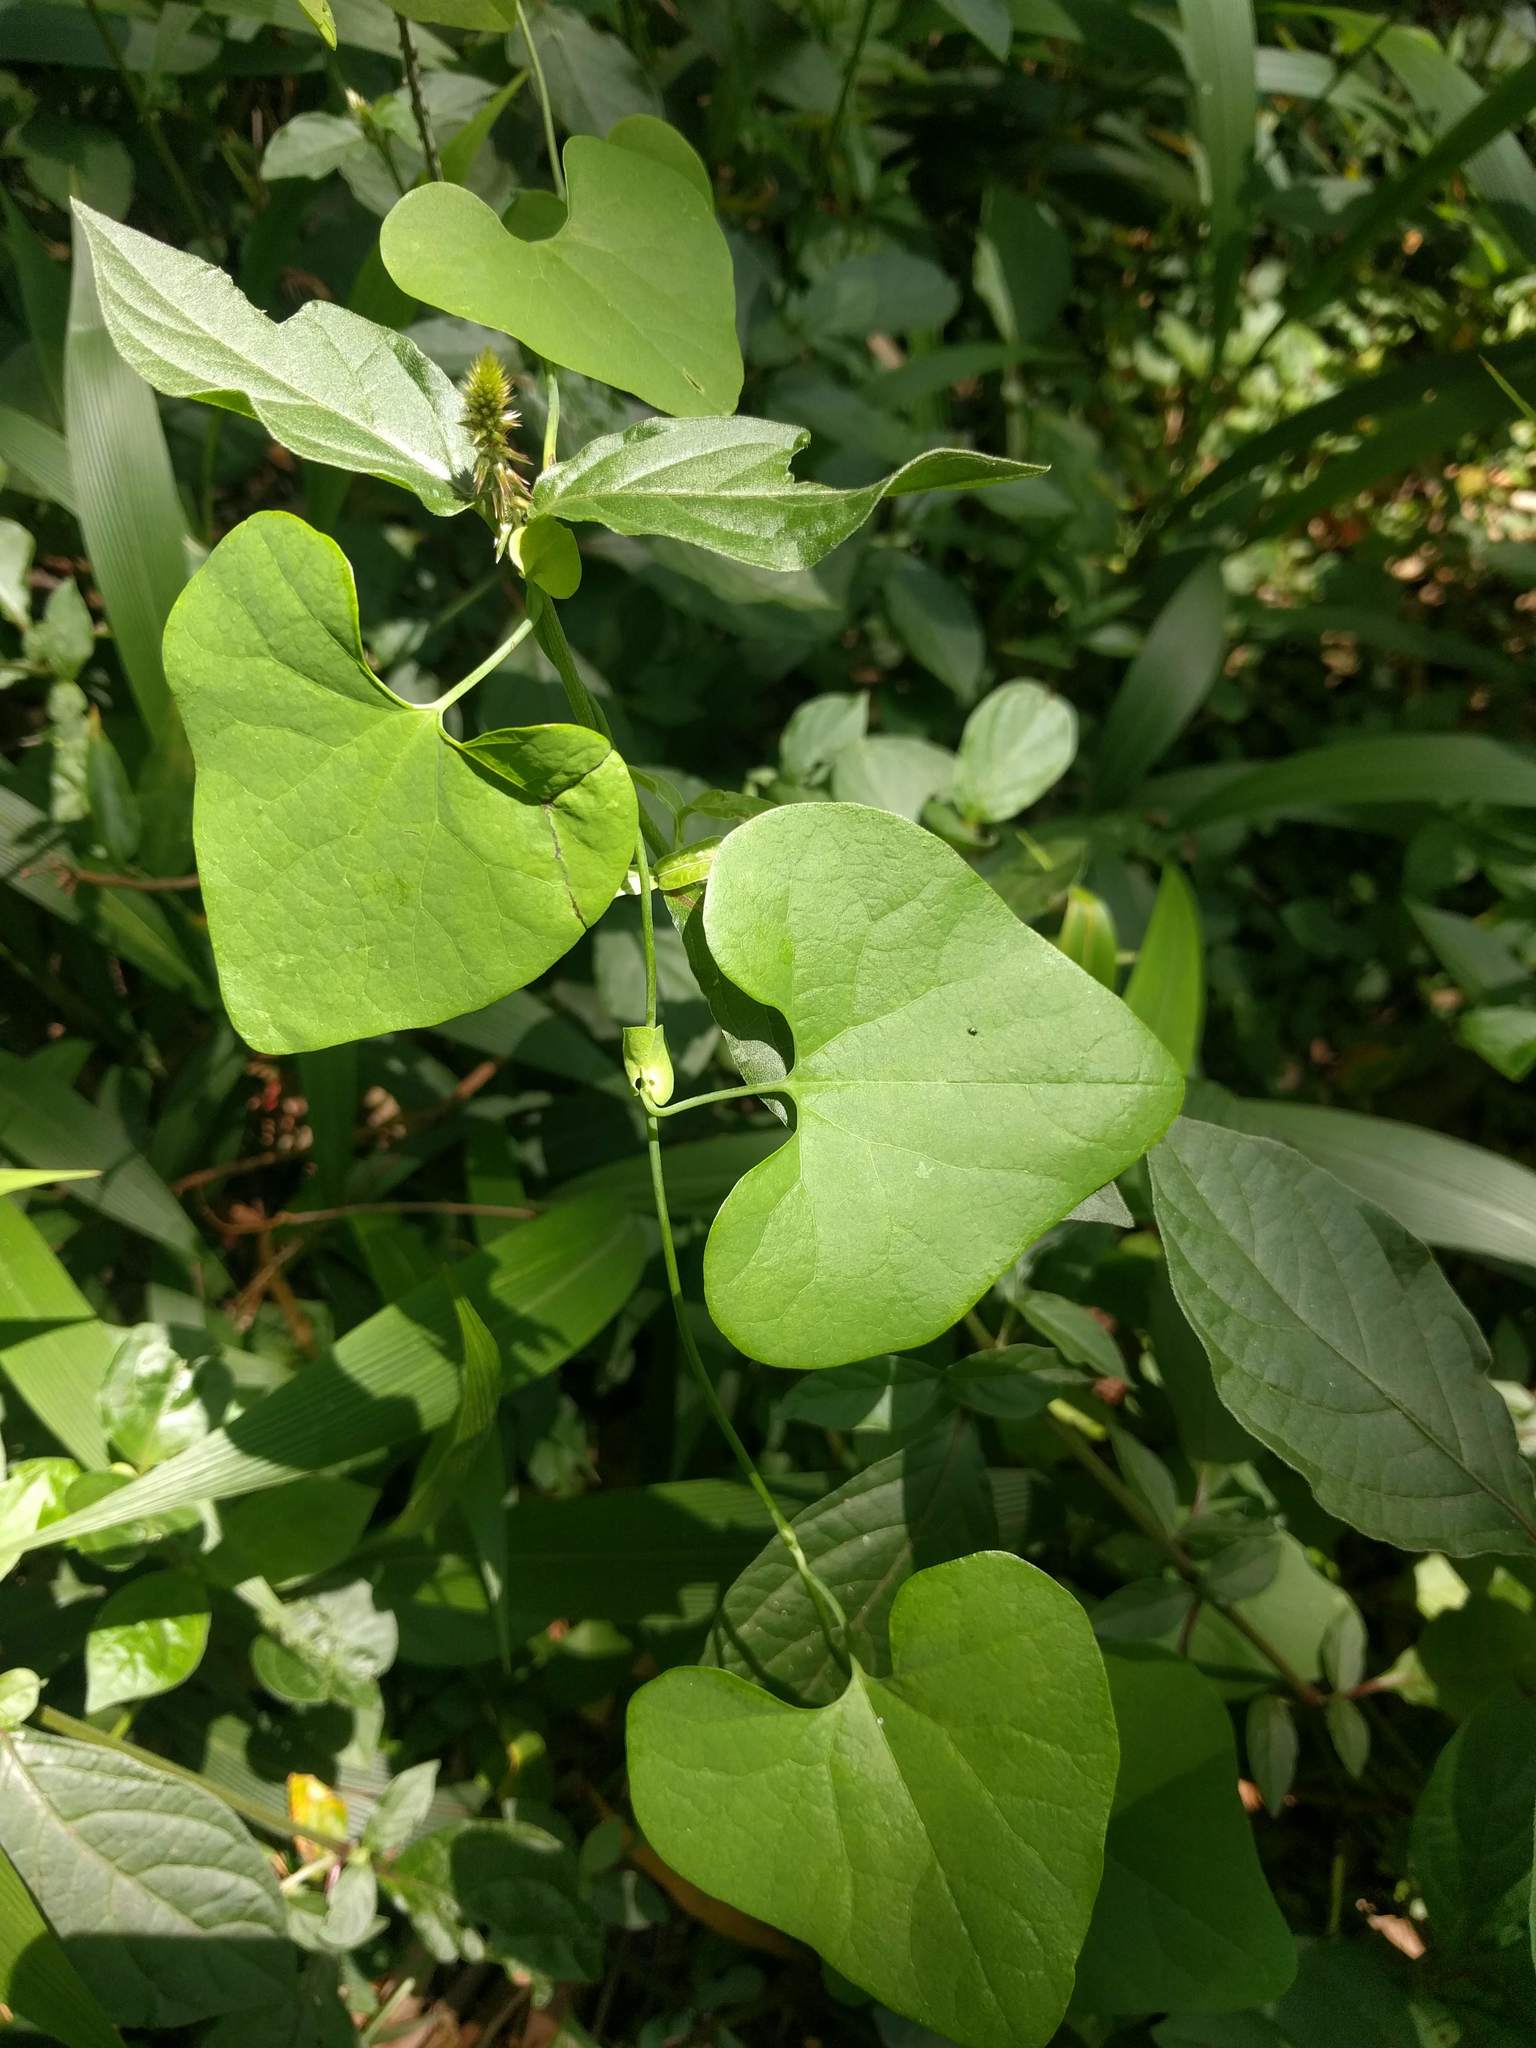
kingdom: Plantae
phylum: Tracheophyta
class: Magnoliopsida
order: Piperales
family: Aristolochiaceae
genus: Aristolochia
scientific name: Aristolochia littoralis
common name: Duck
